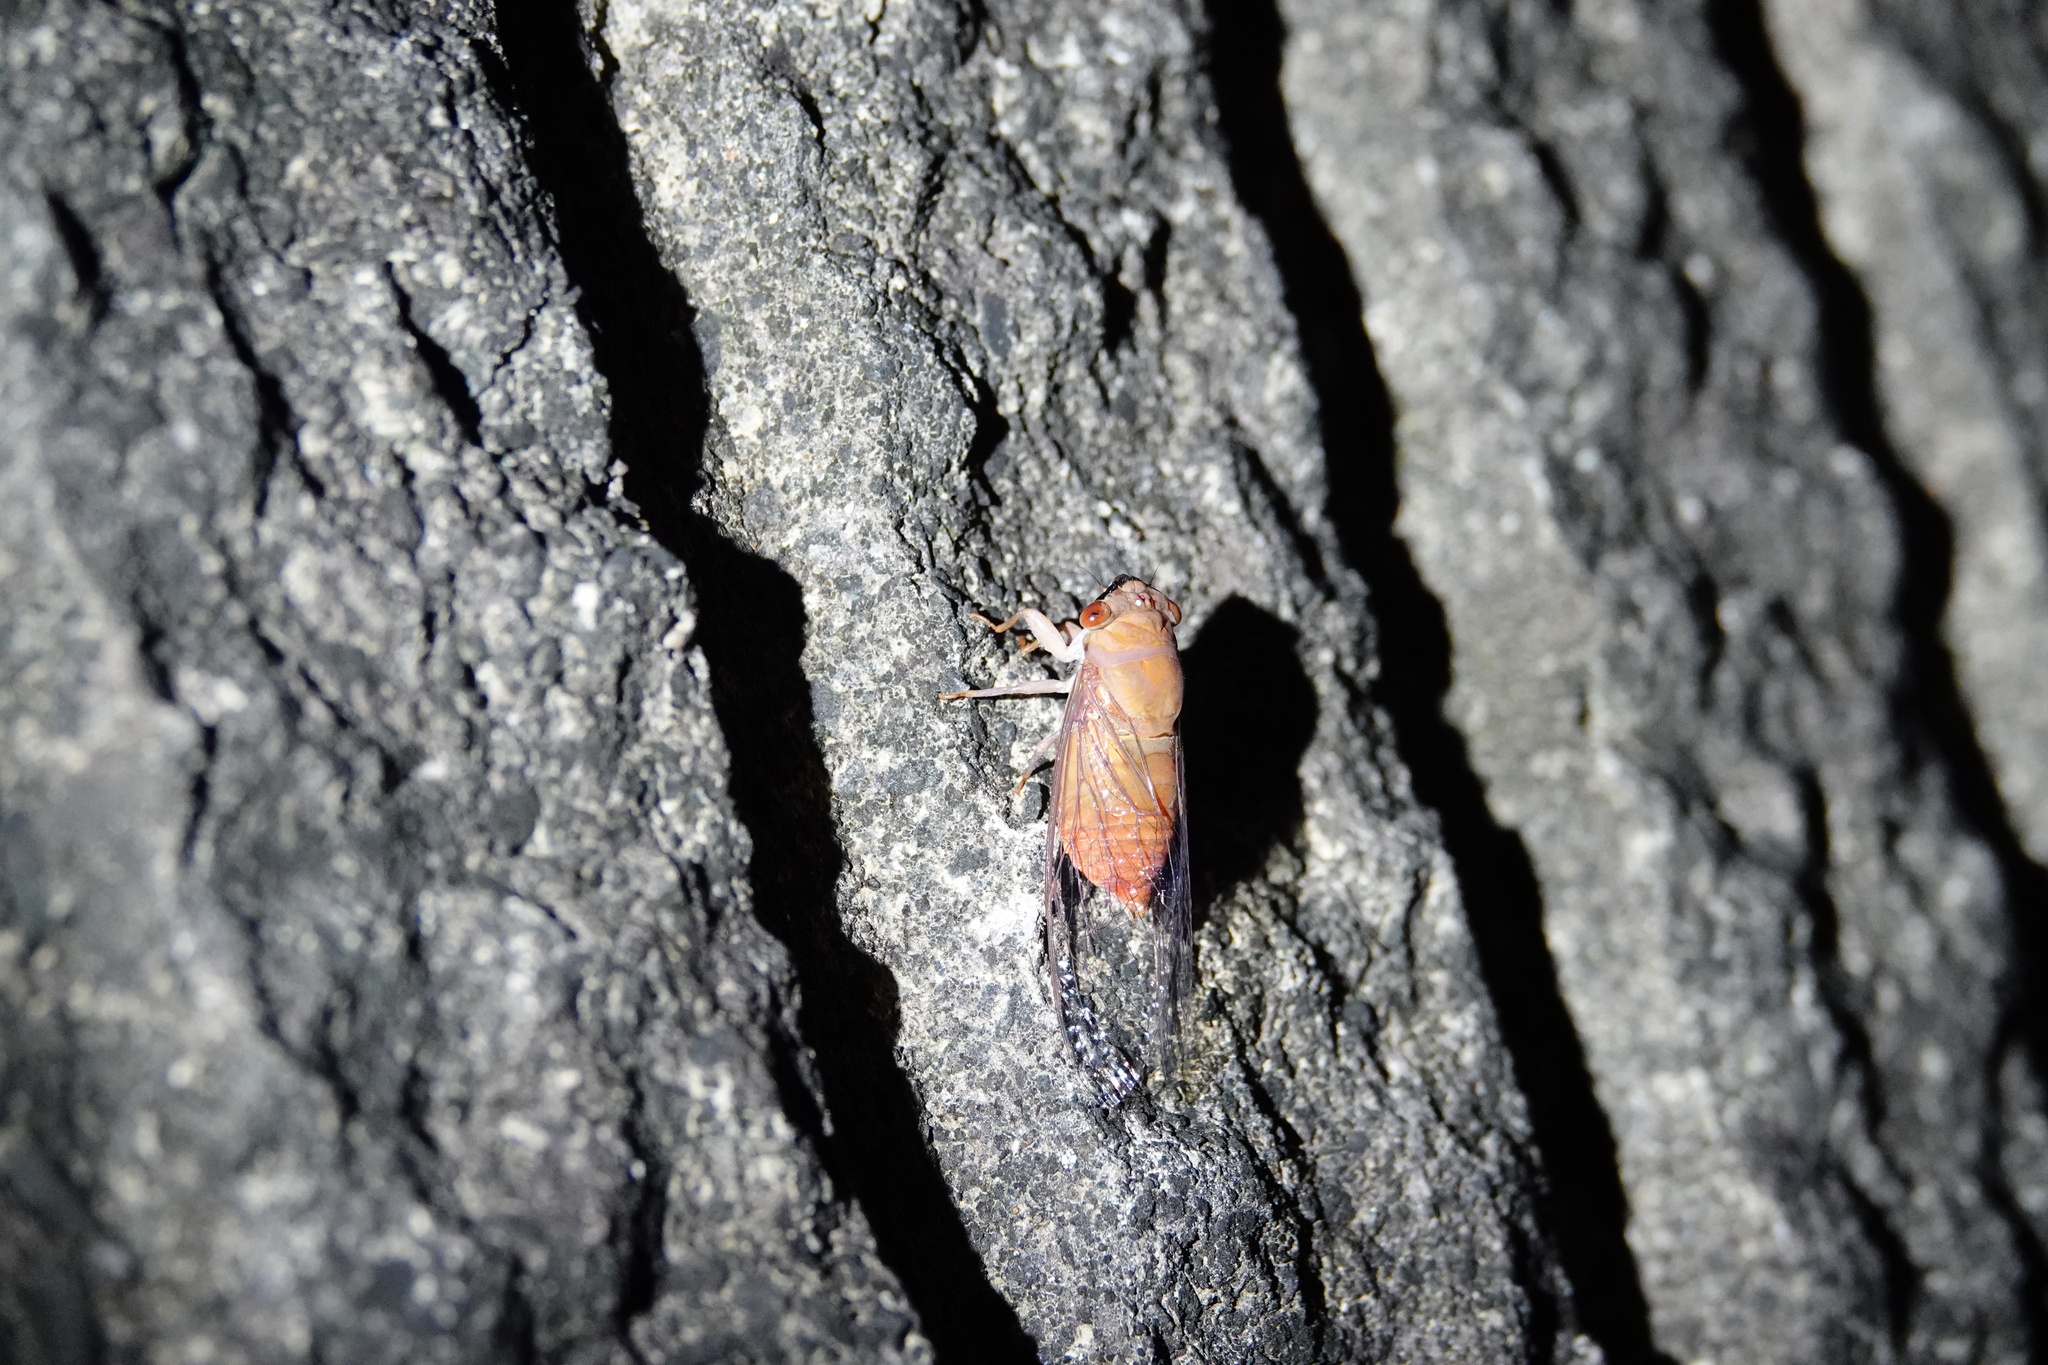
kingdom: Animalia
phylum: Arthropoda
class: Insecta
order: Hemiptera
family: Cicadidae
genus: Chremistica
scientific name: Chremistica ochracea
